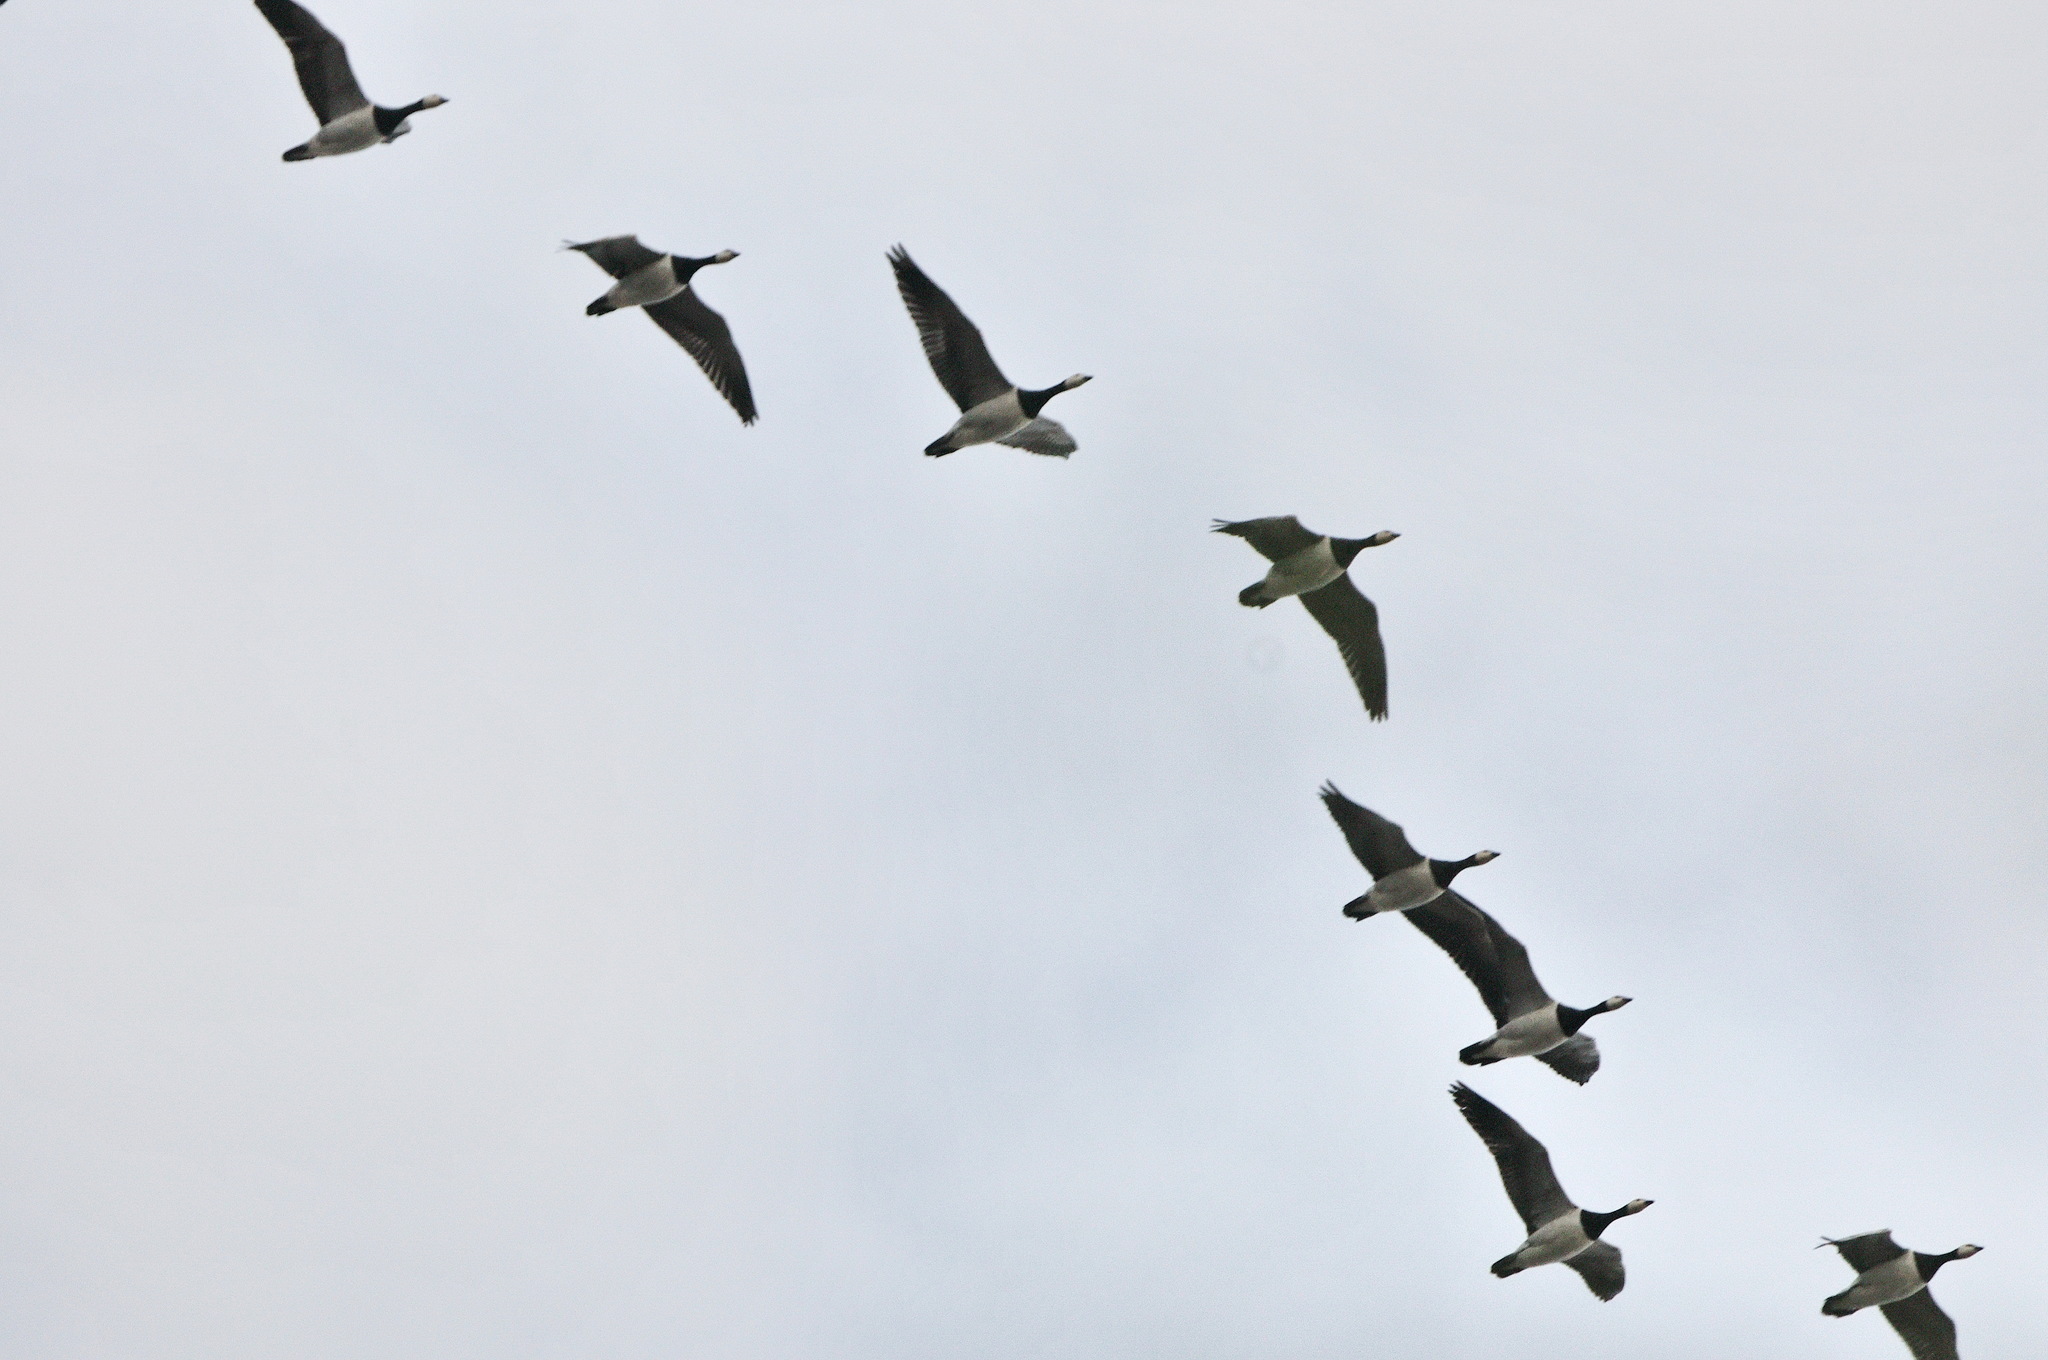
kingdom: Animalia
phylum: Chordata
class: Aves
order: Anseriformes
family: Anatidae
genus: Branta
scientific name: Branta leucopsis
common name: Barnacle goose
